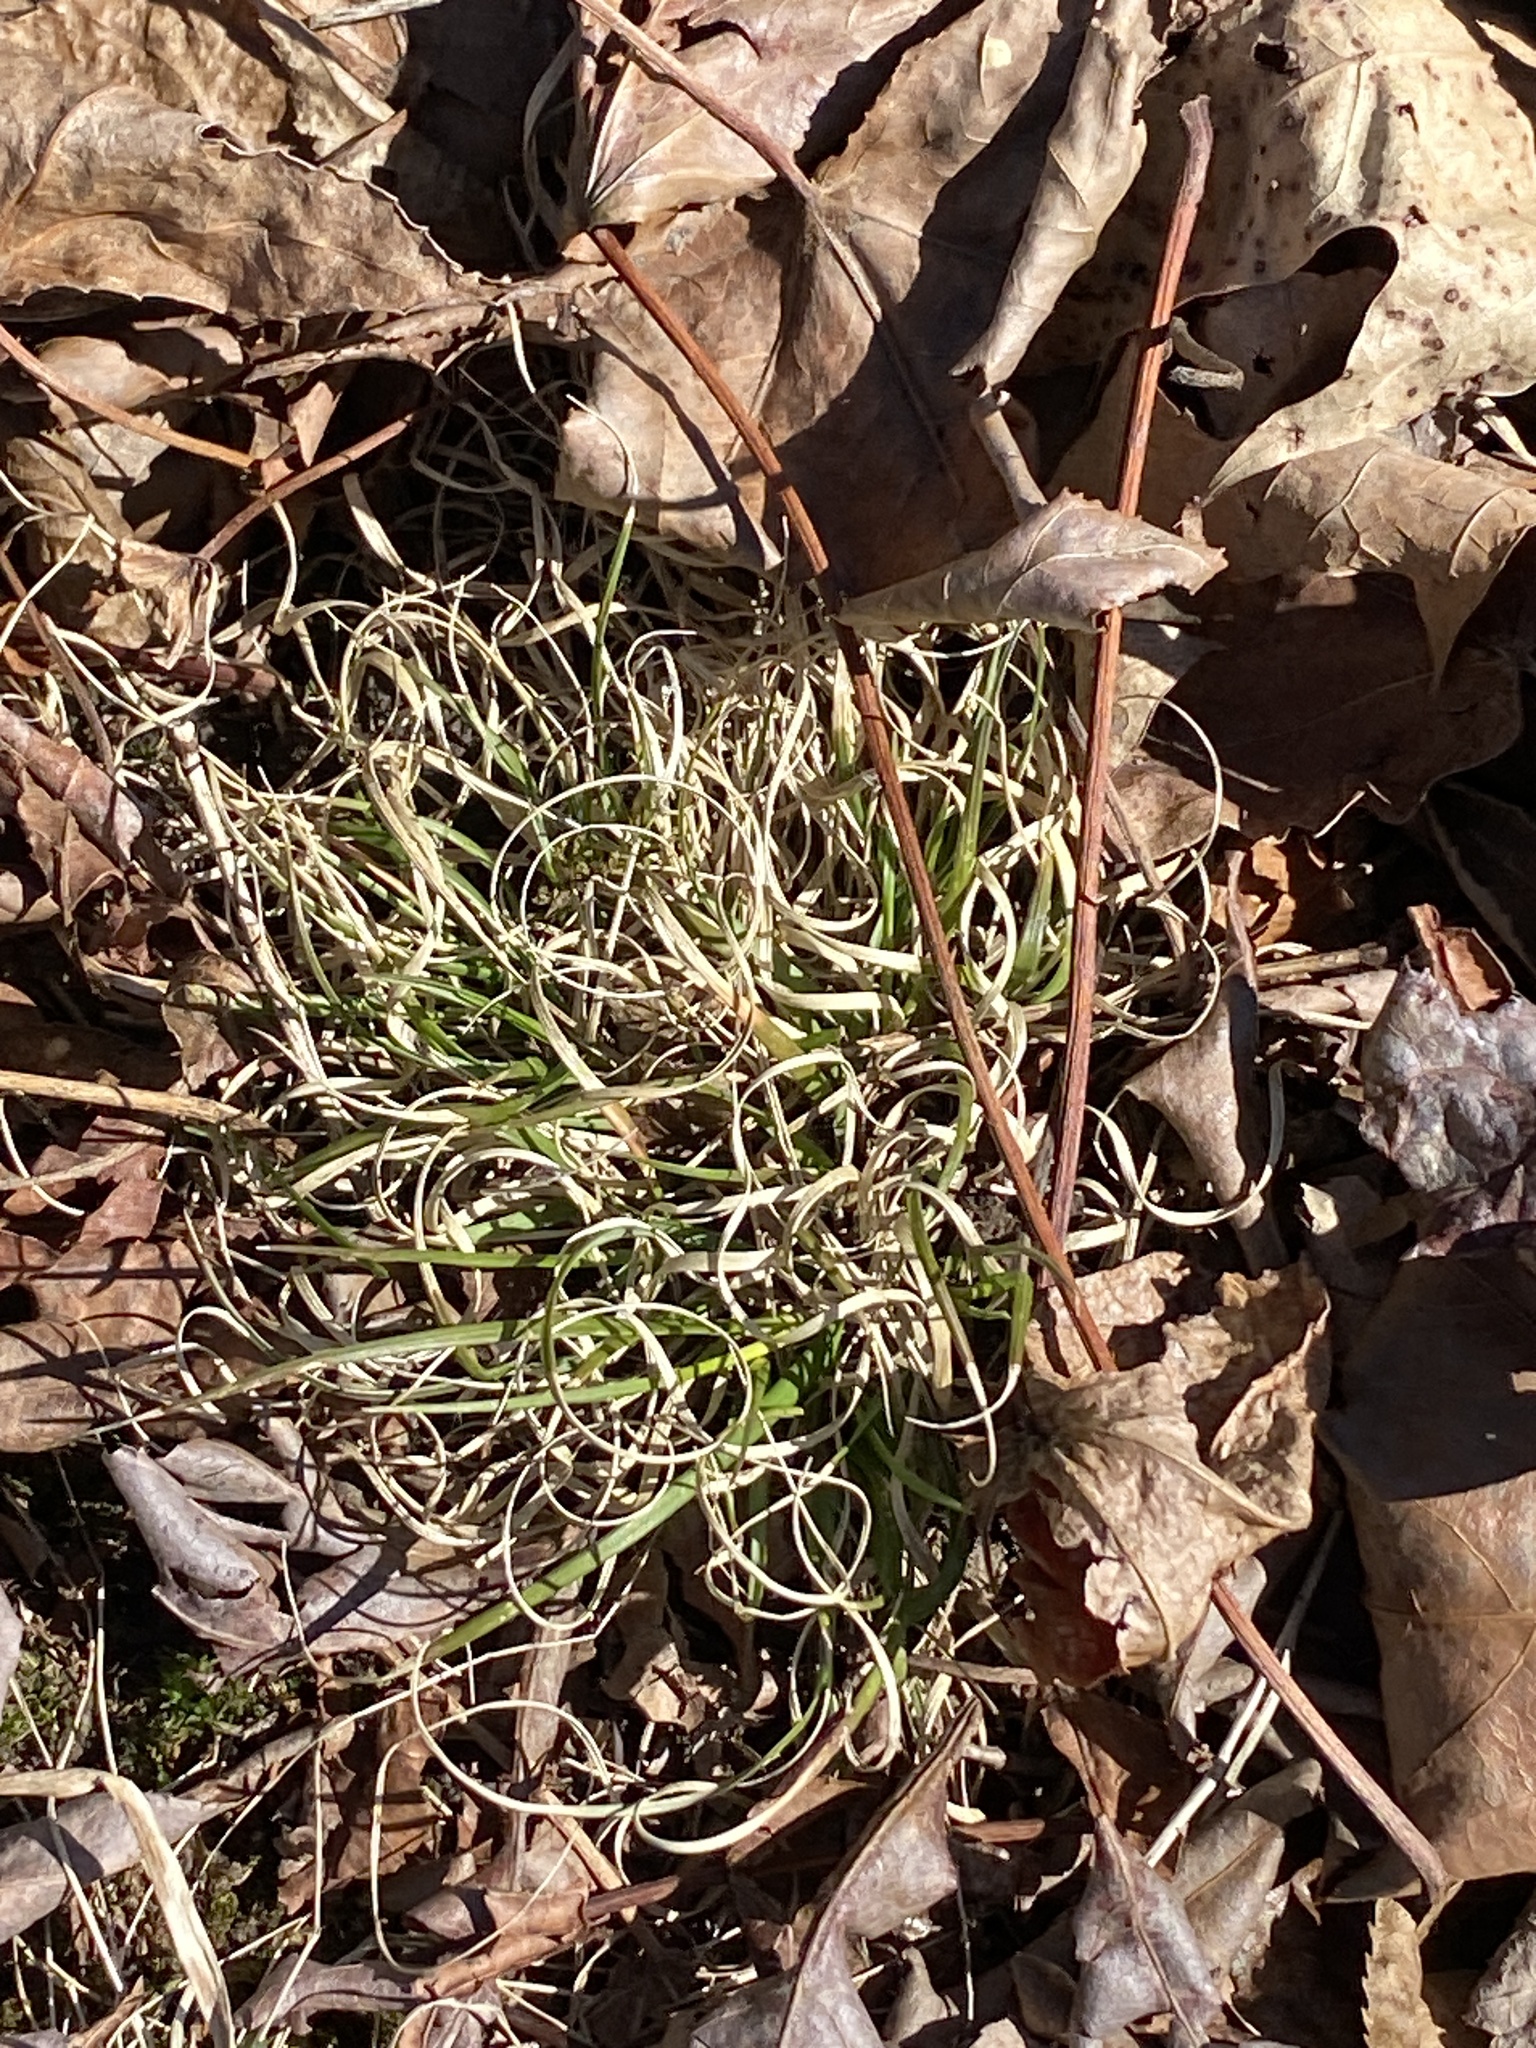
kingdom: Plantae
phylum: Tracheophyta
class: Liliopsida
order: Poales
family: Poaceae
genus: Danthonia
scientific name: Danthonia spicata
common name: Common wild oatgrass
